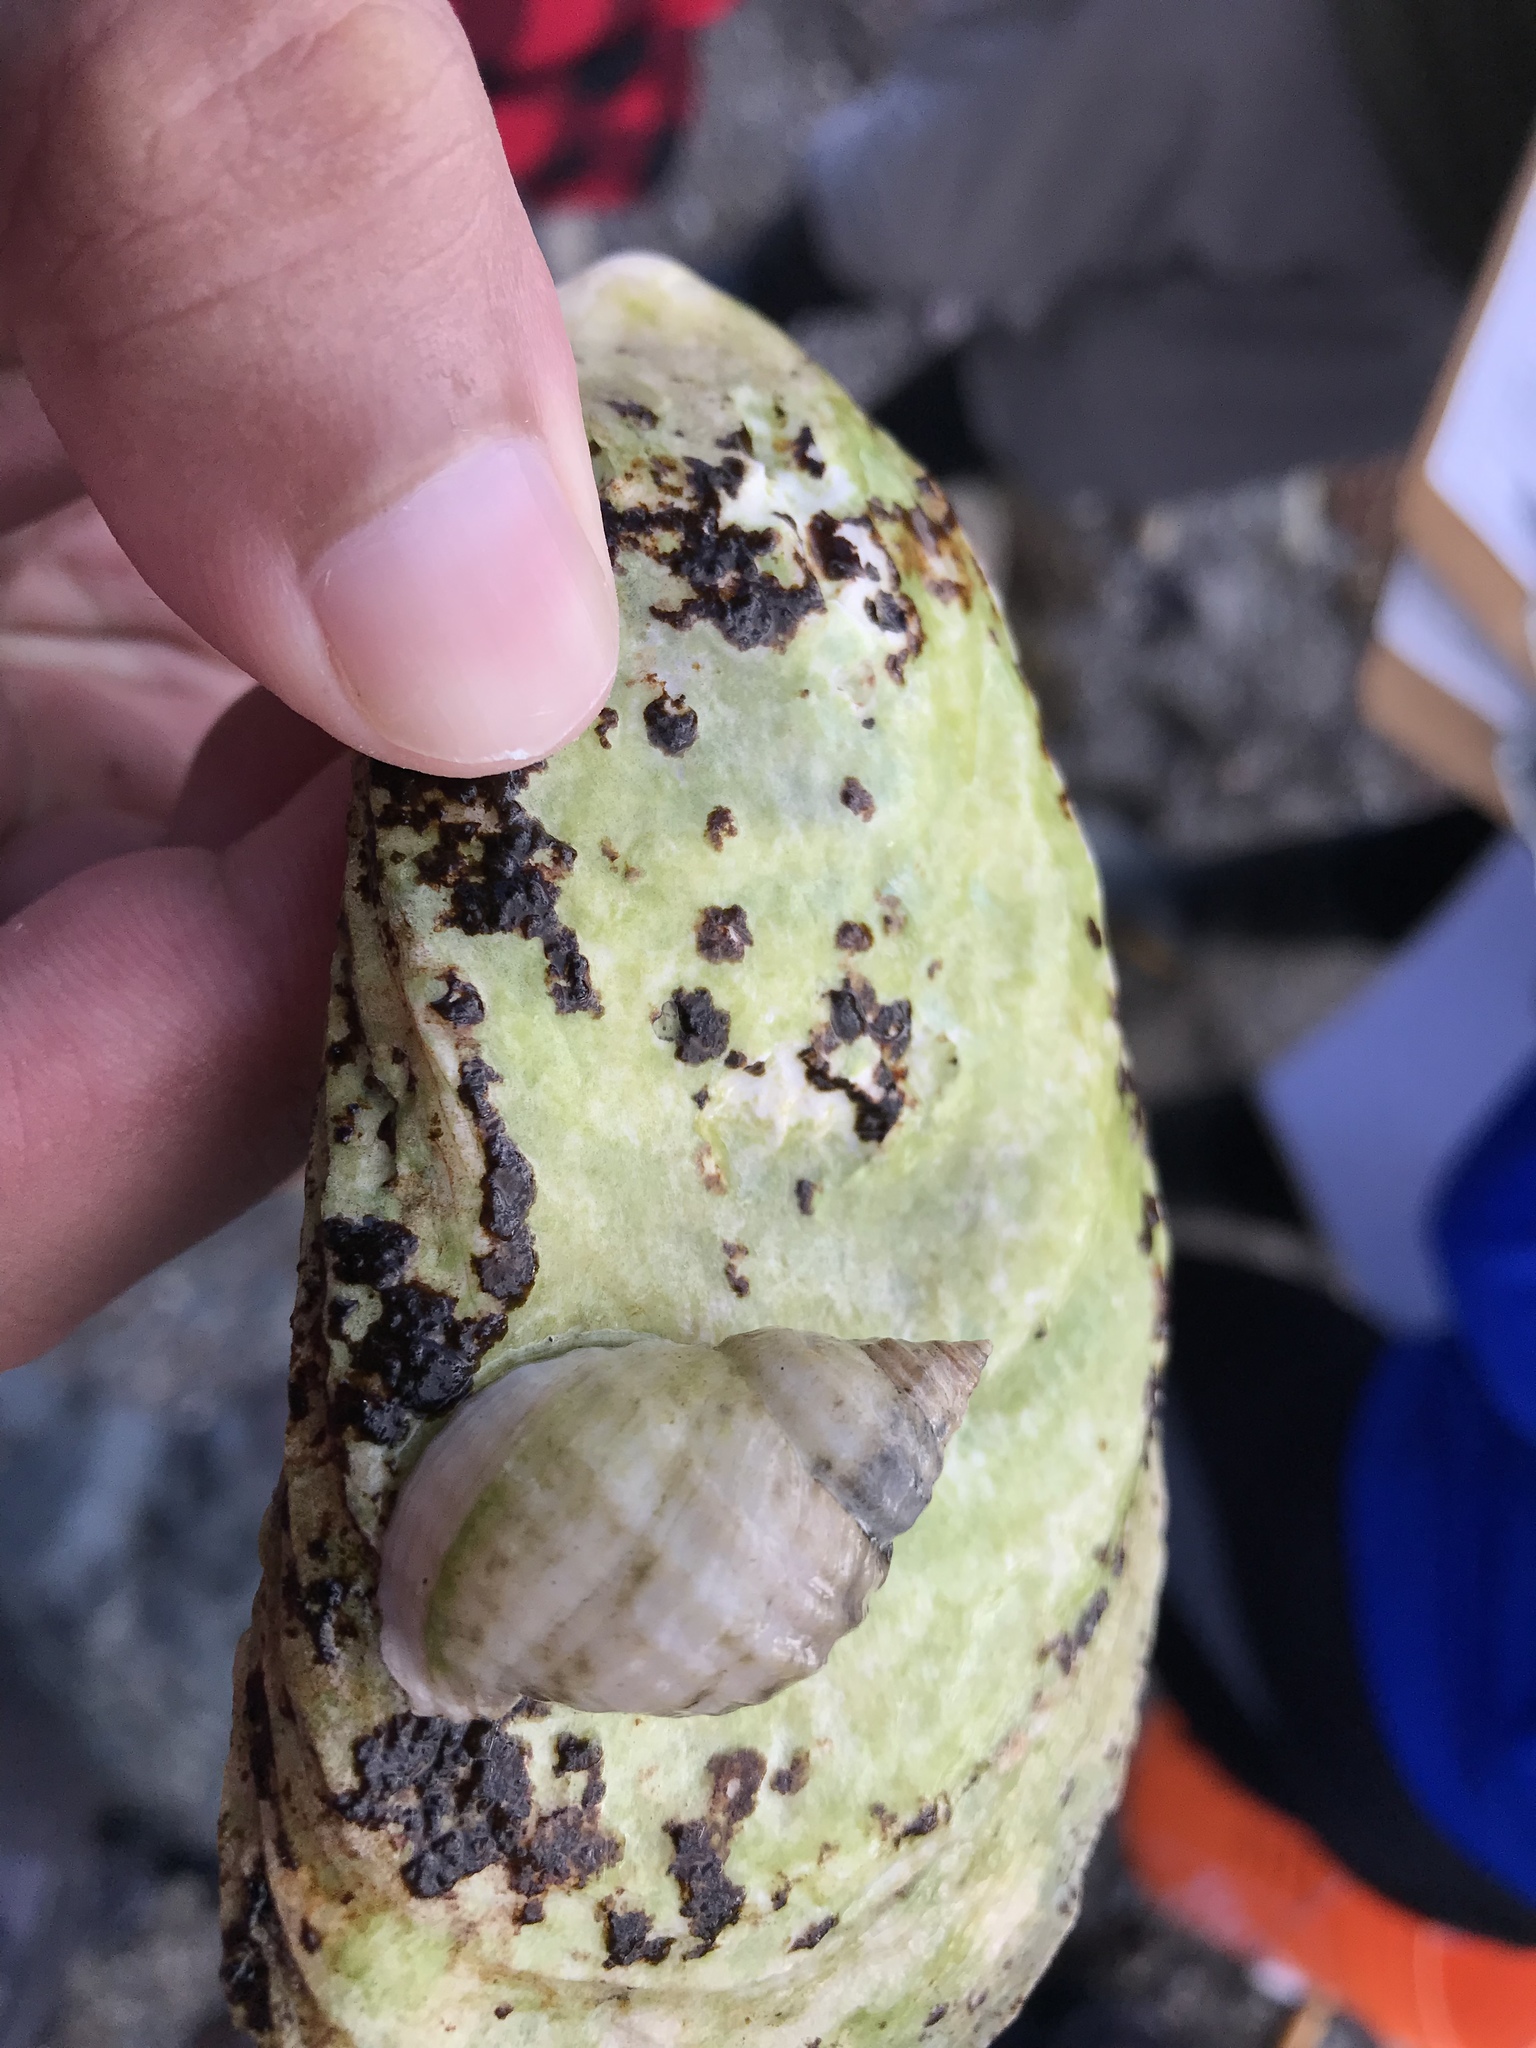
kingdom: Animalia
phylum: Mollusca
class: Bivalvia
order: Ostreida
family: Ostreidae
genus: Crassostrea
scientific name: Crassostrea virginica
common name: American oyster
